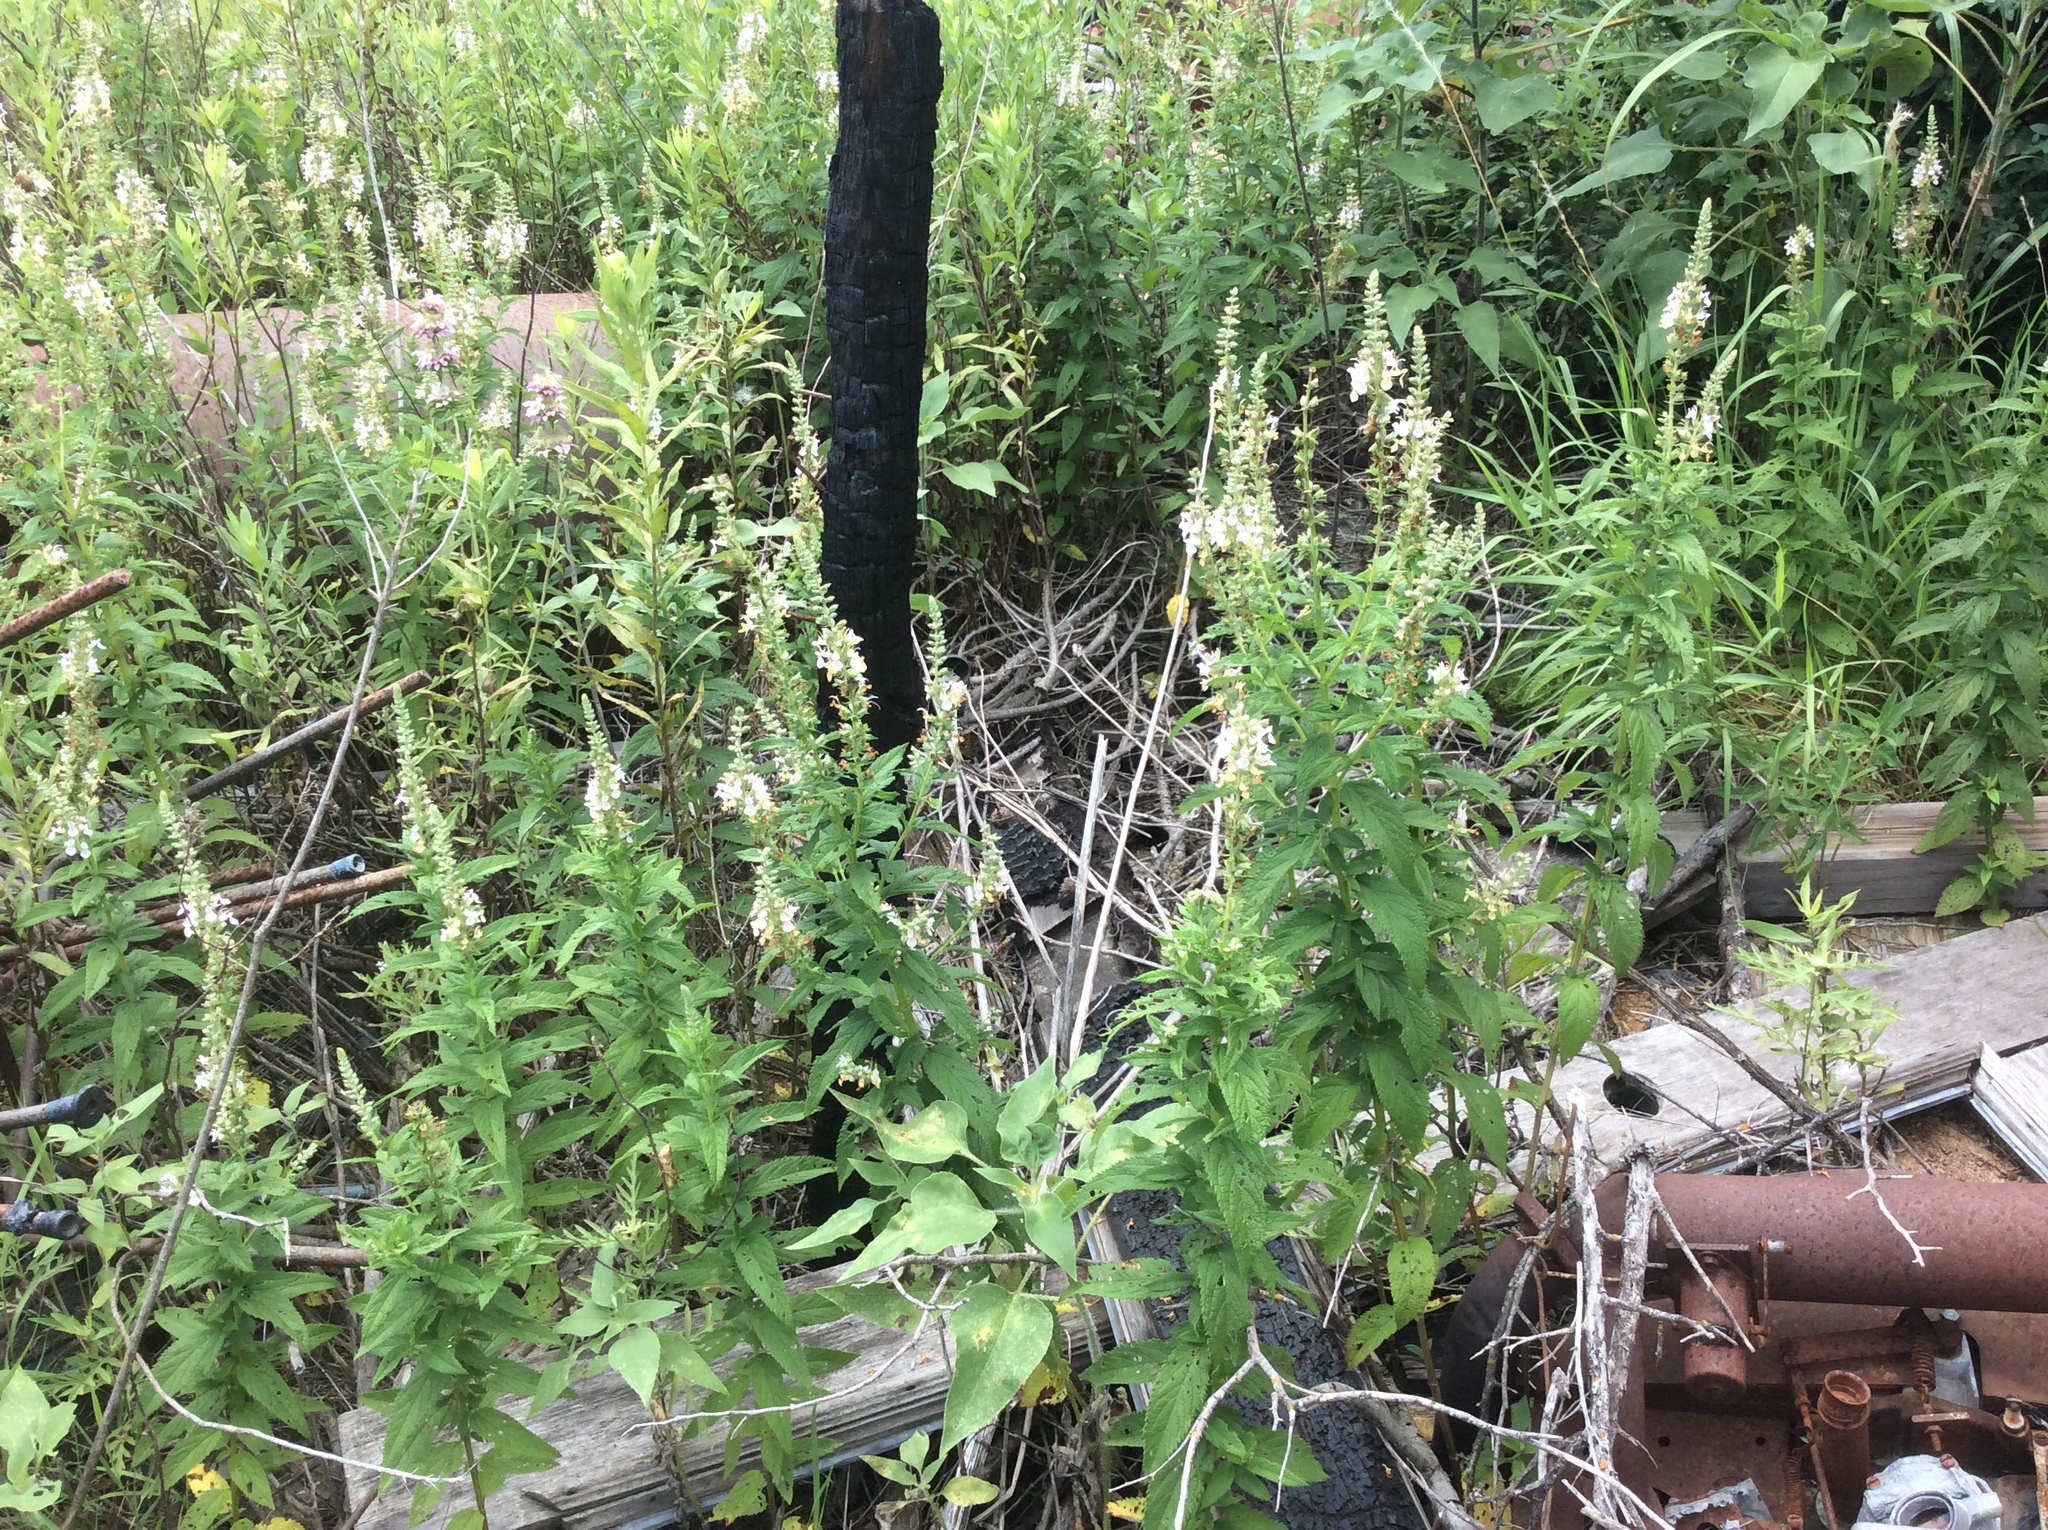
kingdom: Plantae
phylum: Tracheophyta
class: Magnoliopsida
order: Lamiales
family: Lamiaceae
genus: Teucrium
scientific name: Teucrium canadense
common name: American germander
